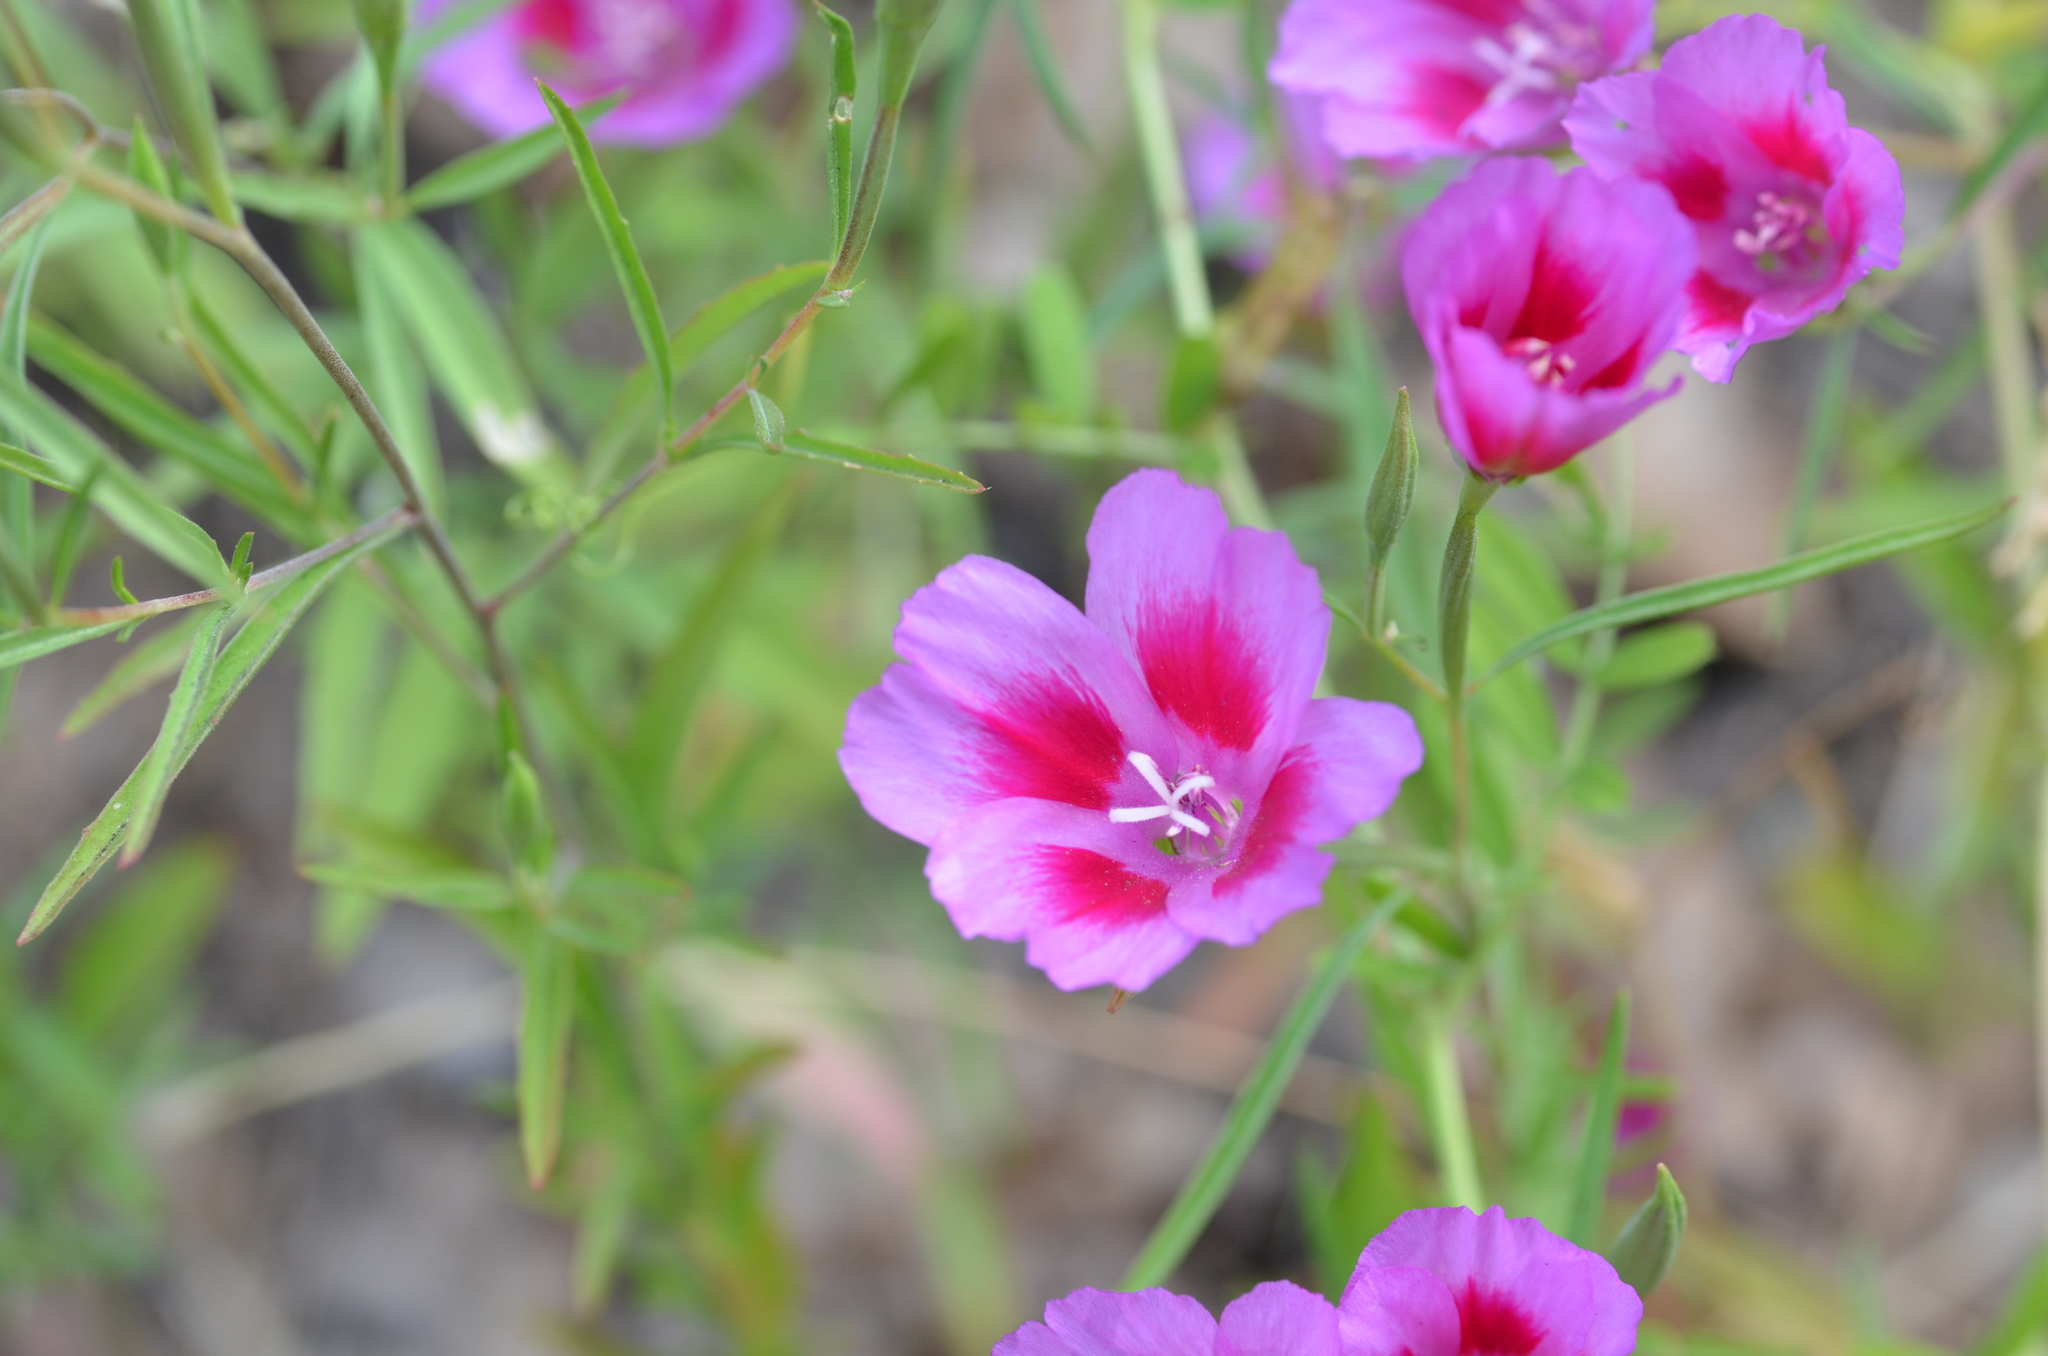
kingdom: Plantae
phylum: Tracheophyta
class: Magnoliopsida
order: Myrtales
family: Onagraceae
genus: Clarkia
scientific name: Clarkia amoena
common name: Godetia
